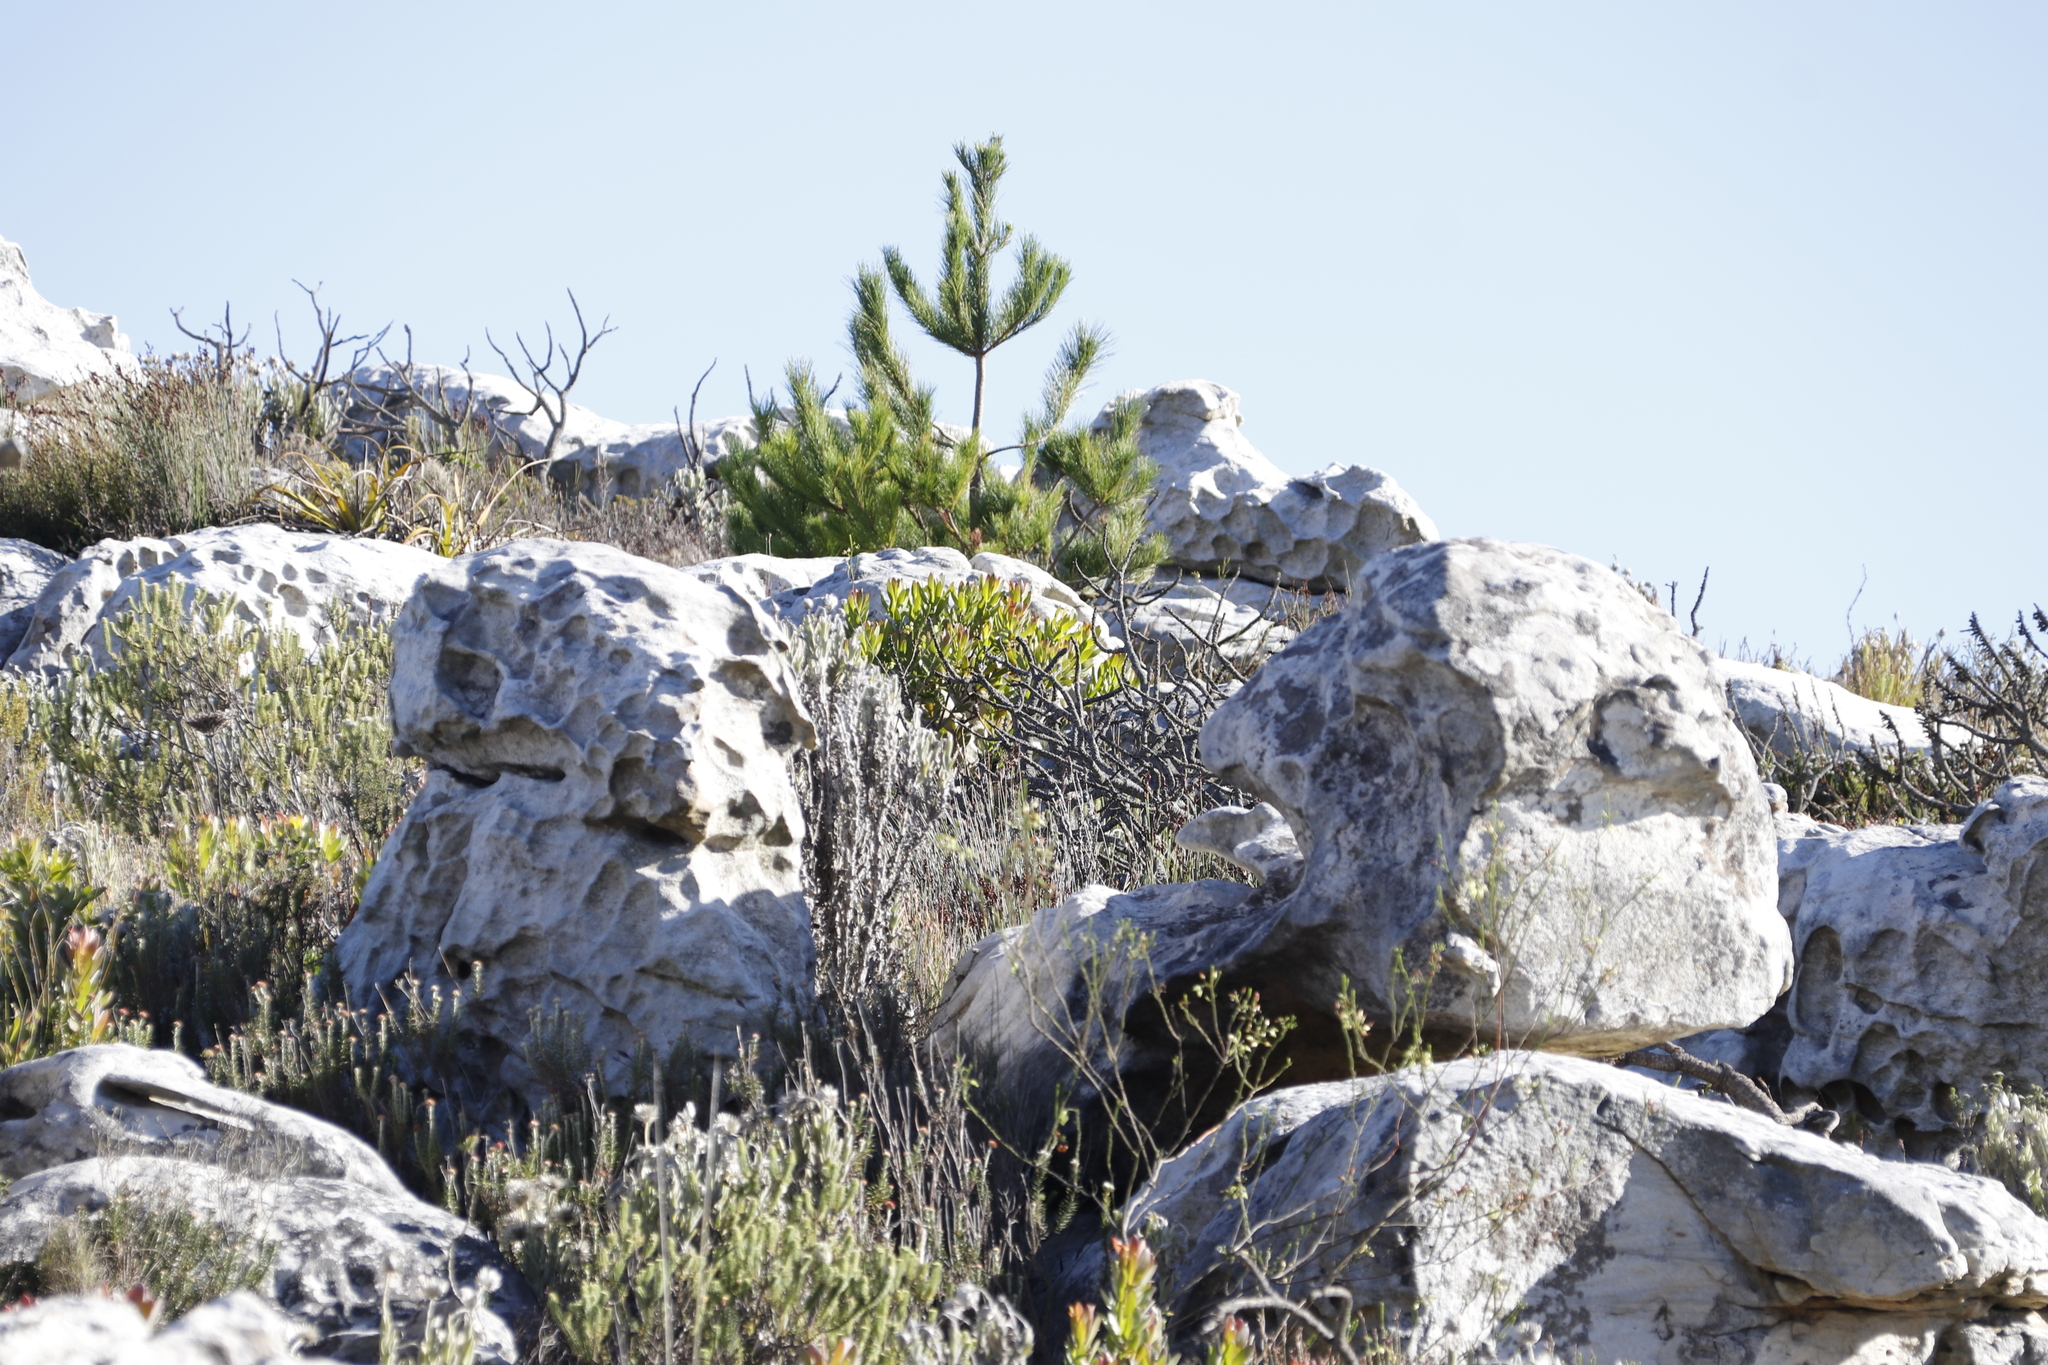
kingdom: Plantae
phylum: Tracheophyta
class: Pinopsida
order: Pinales
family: Pinaceae
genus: Pinus
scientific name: Pinus radiata
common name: Monterey pine
